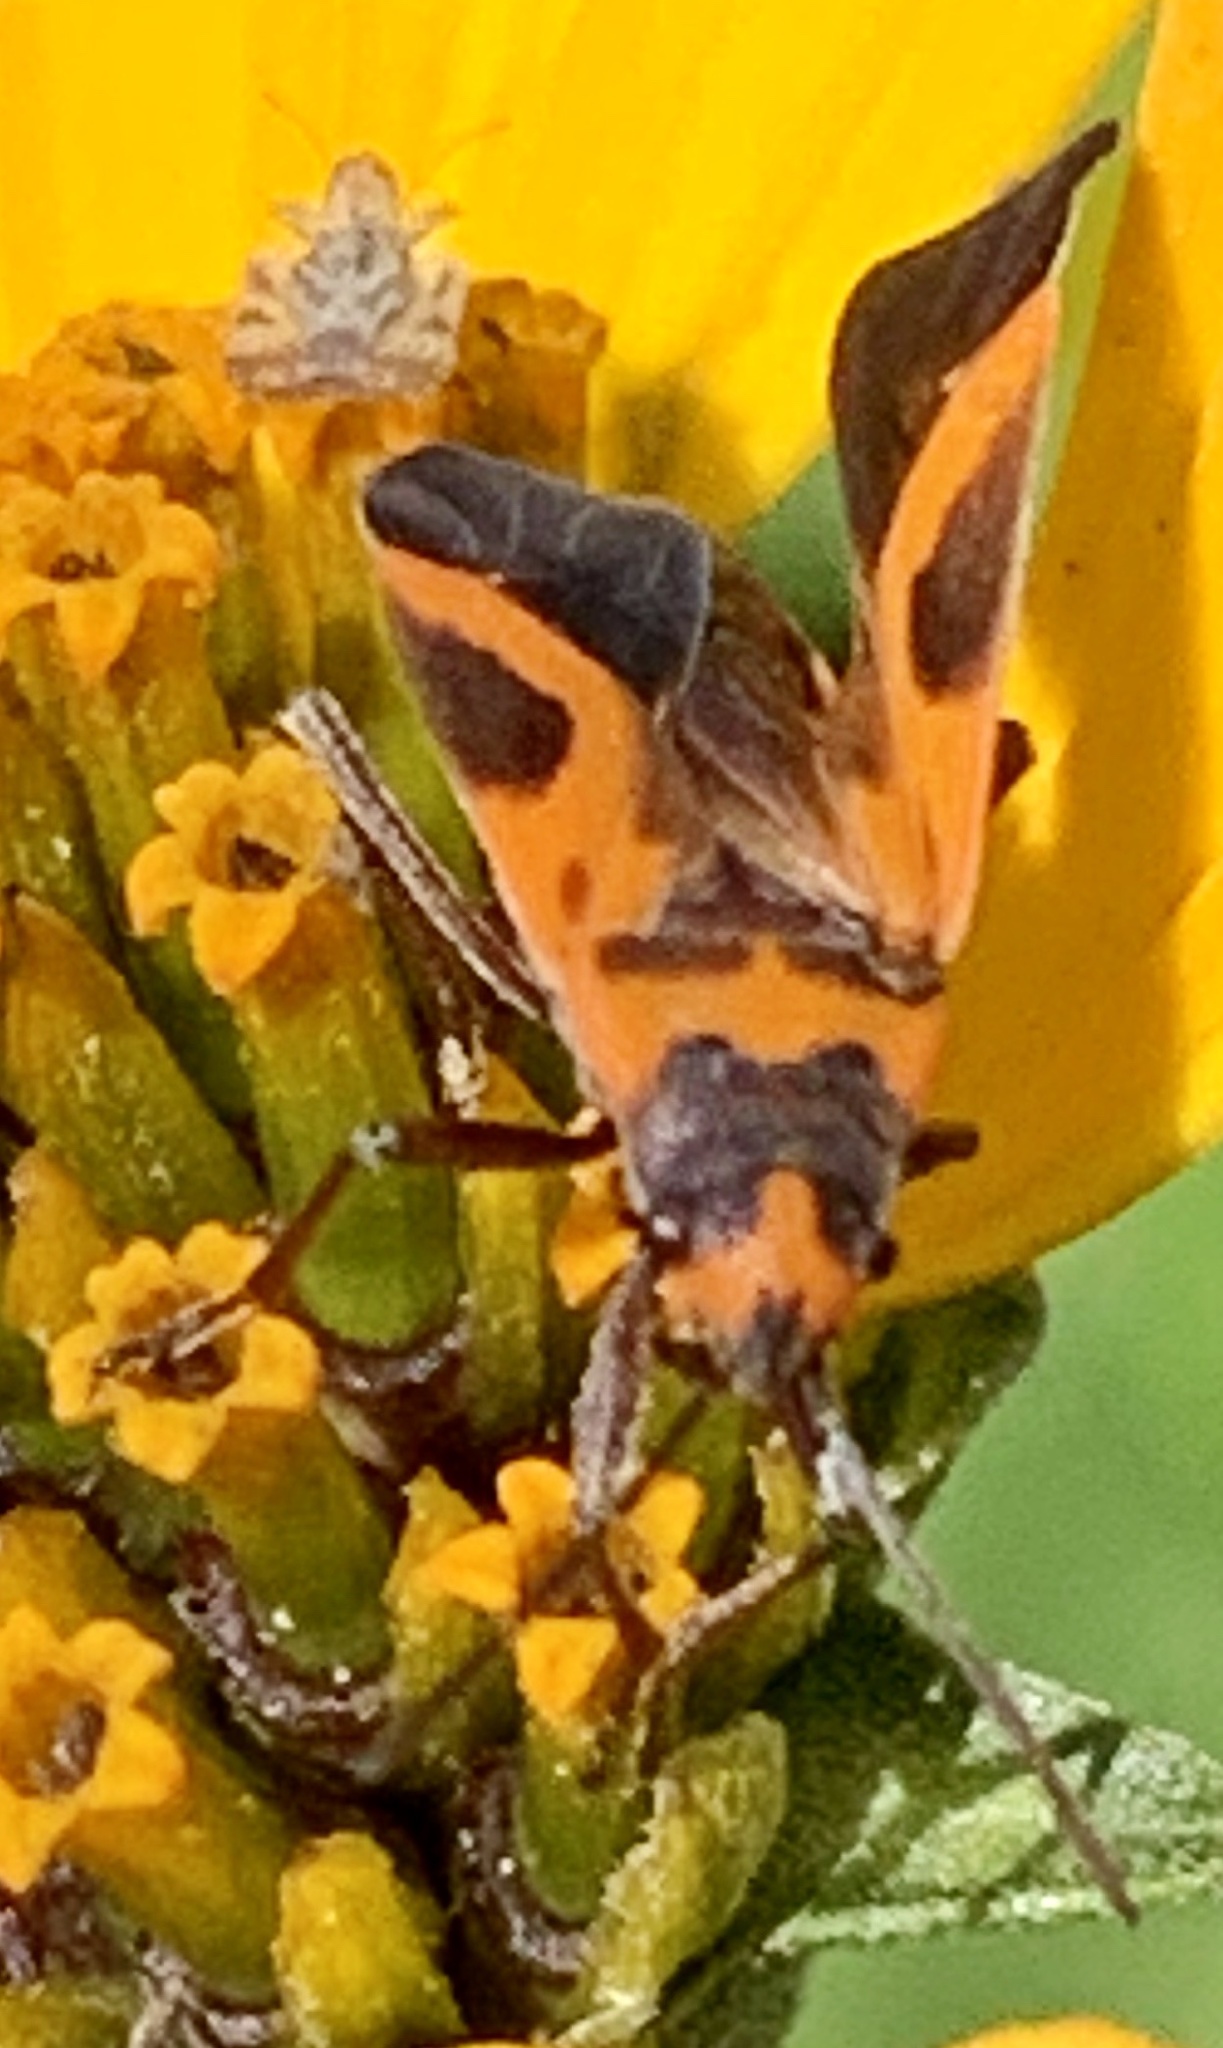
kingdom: Animalia
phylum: Arthropoda
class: Insecta
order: Hemiptera
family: Lygaeidae
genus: Lygaeus
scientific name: Lygaeus turcicus
